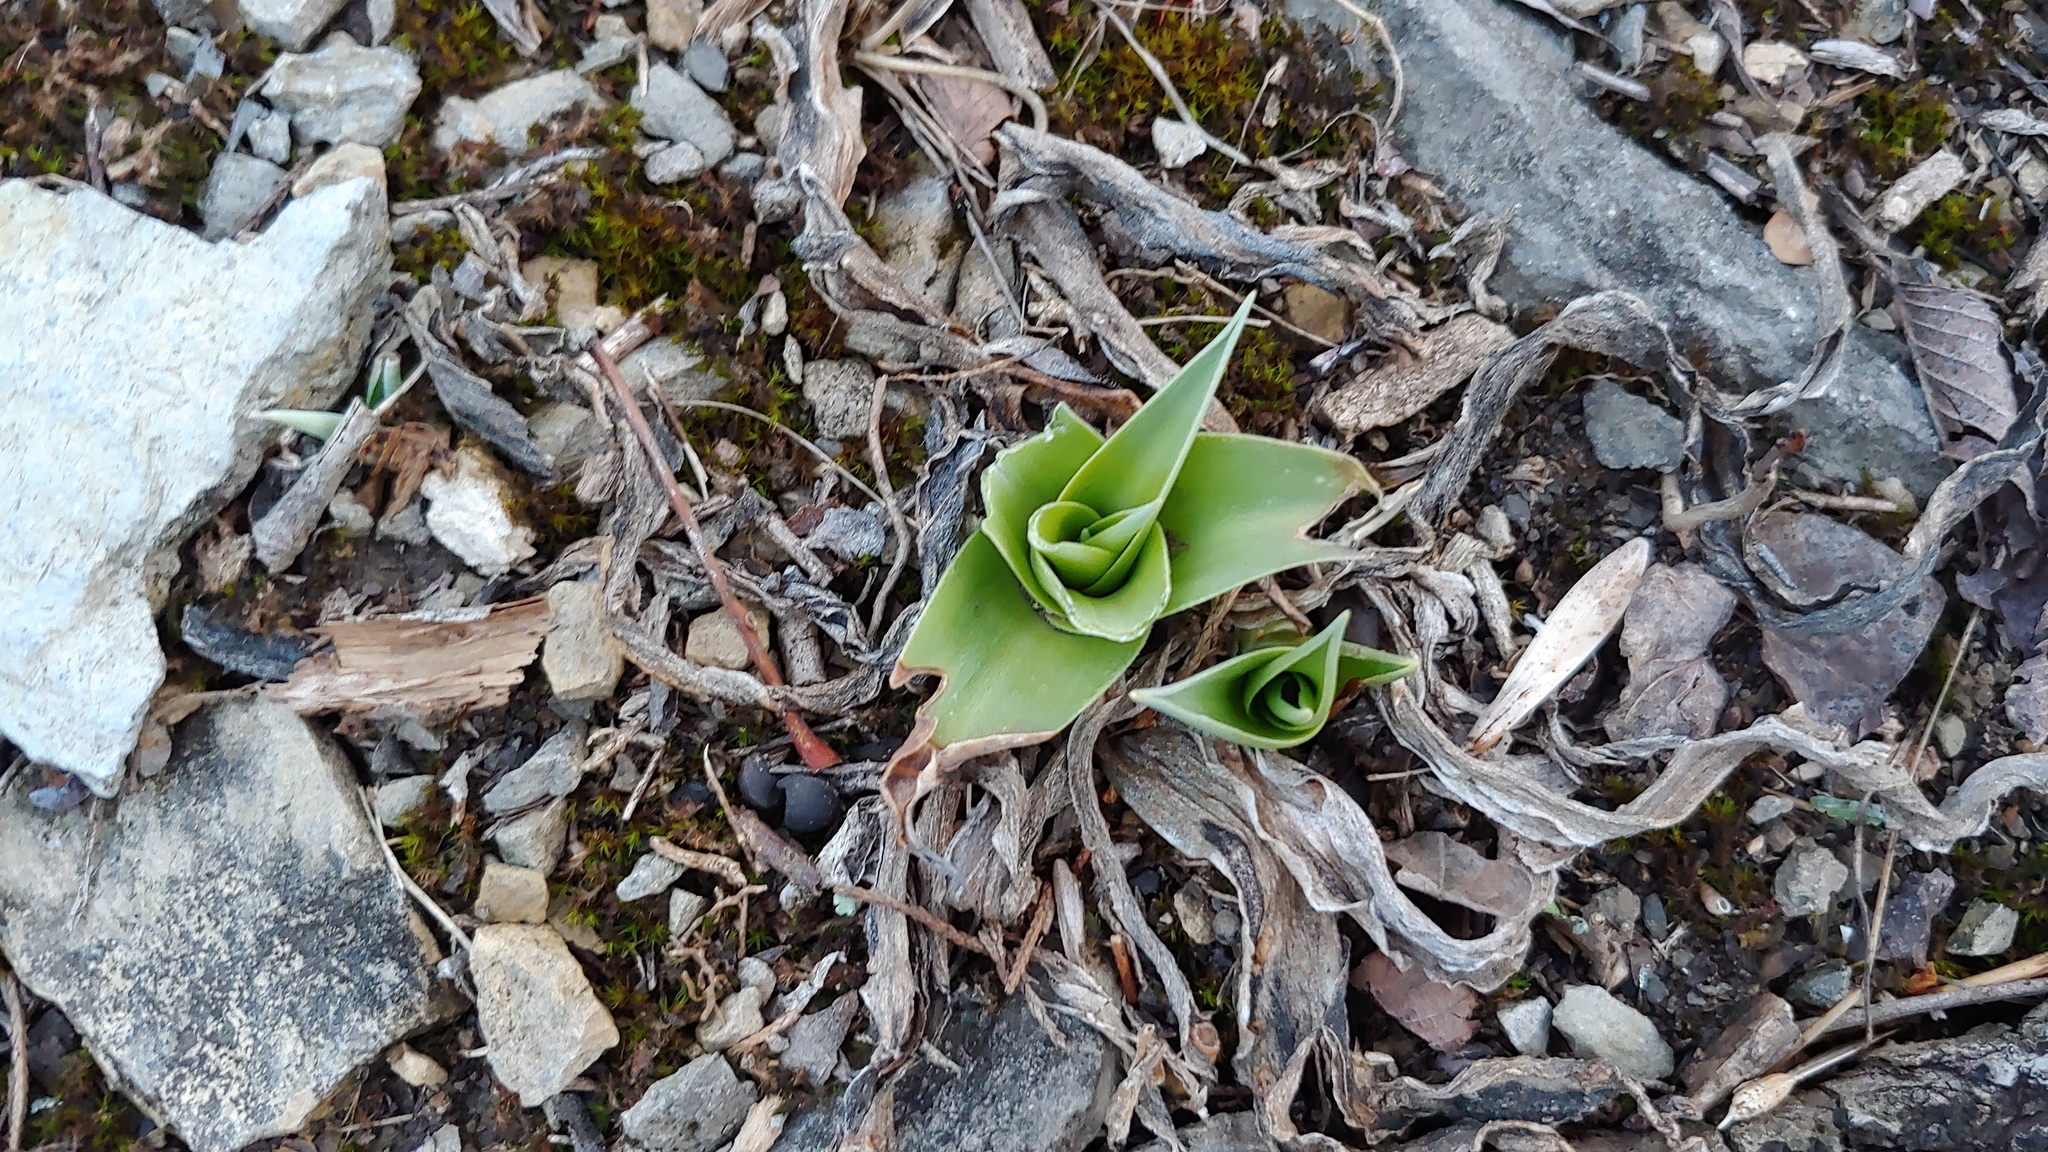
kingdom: Plantae
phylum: Tracheophyta
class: Liliopsida
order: Asparagales
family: Asparagaceae
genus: Agave
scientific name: Agave virginica
